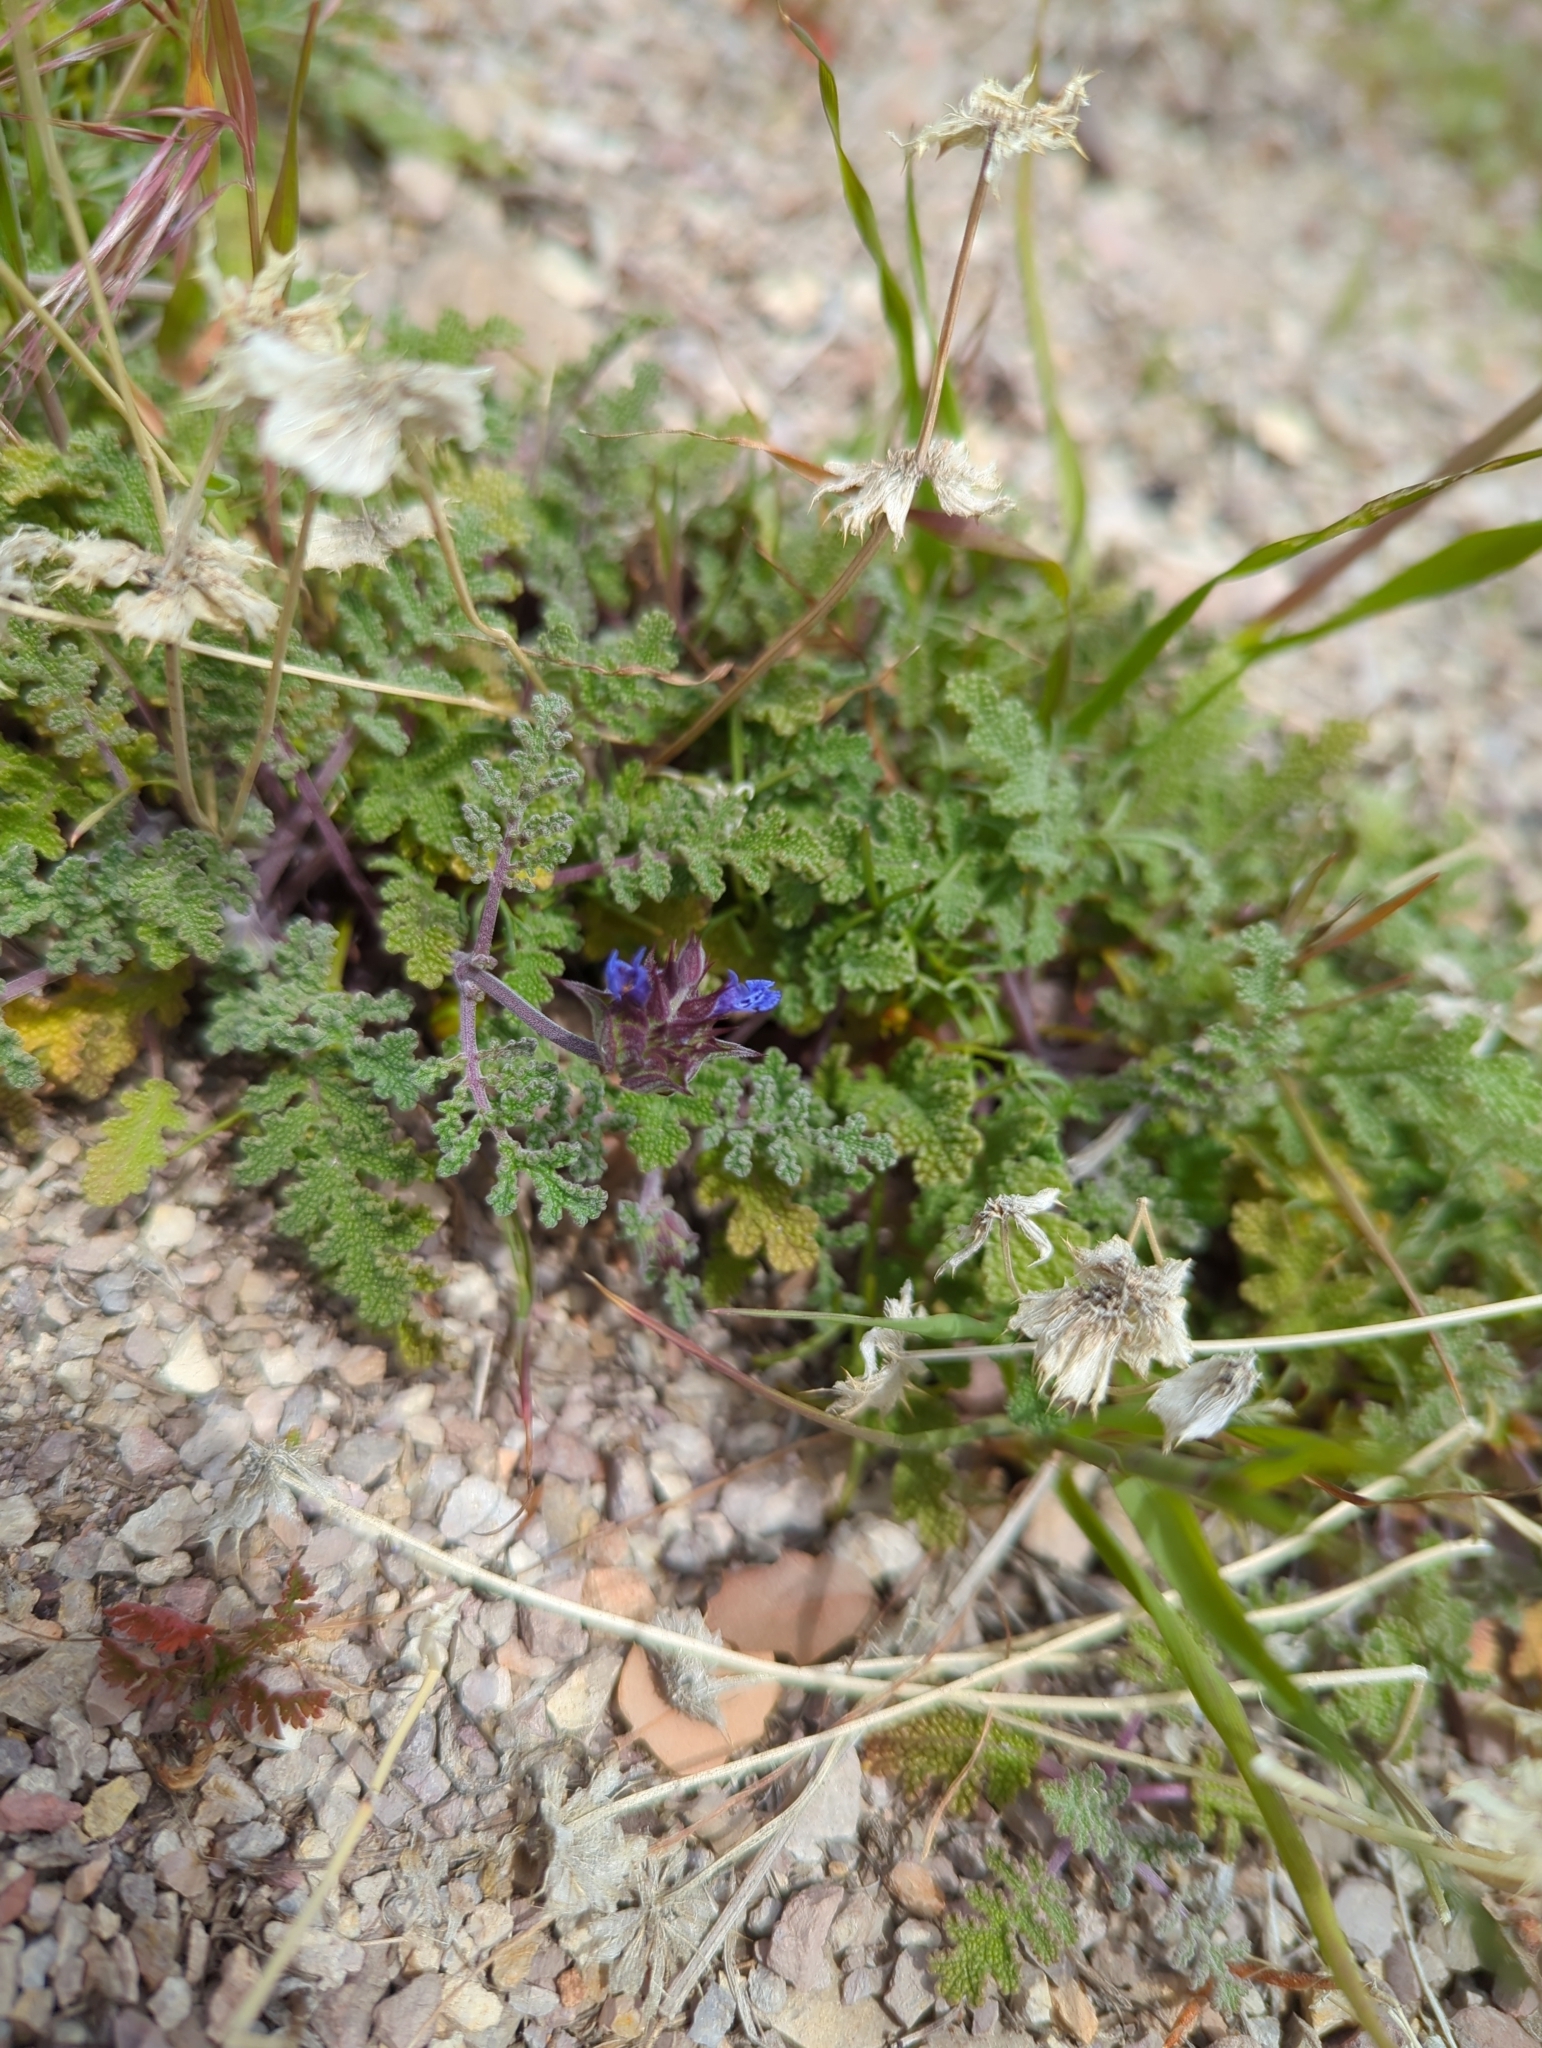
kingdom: Plantae
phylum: Tracheophyta
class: Magnoliopsida
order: Lamiales
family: Lamiaceae
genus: Salvia
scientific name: Salvia columbariae
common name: Chia
